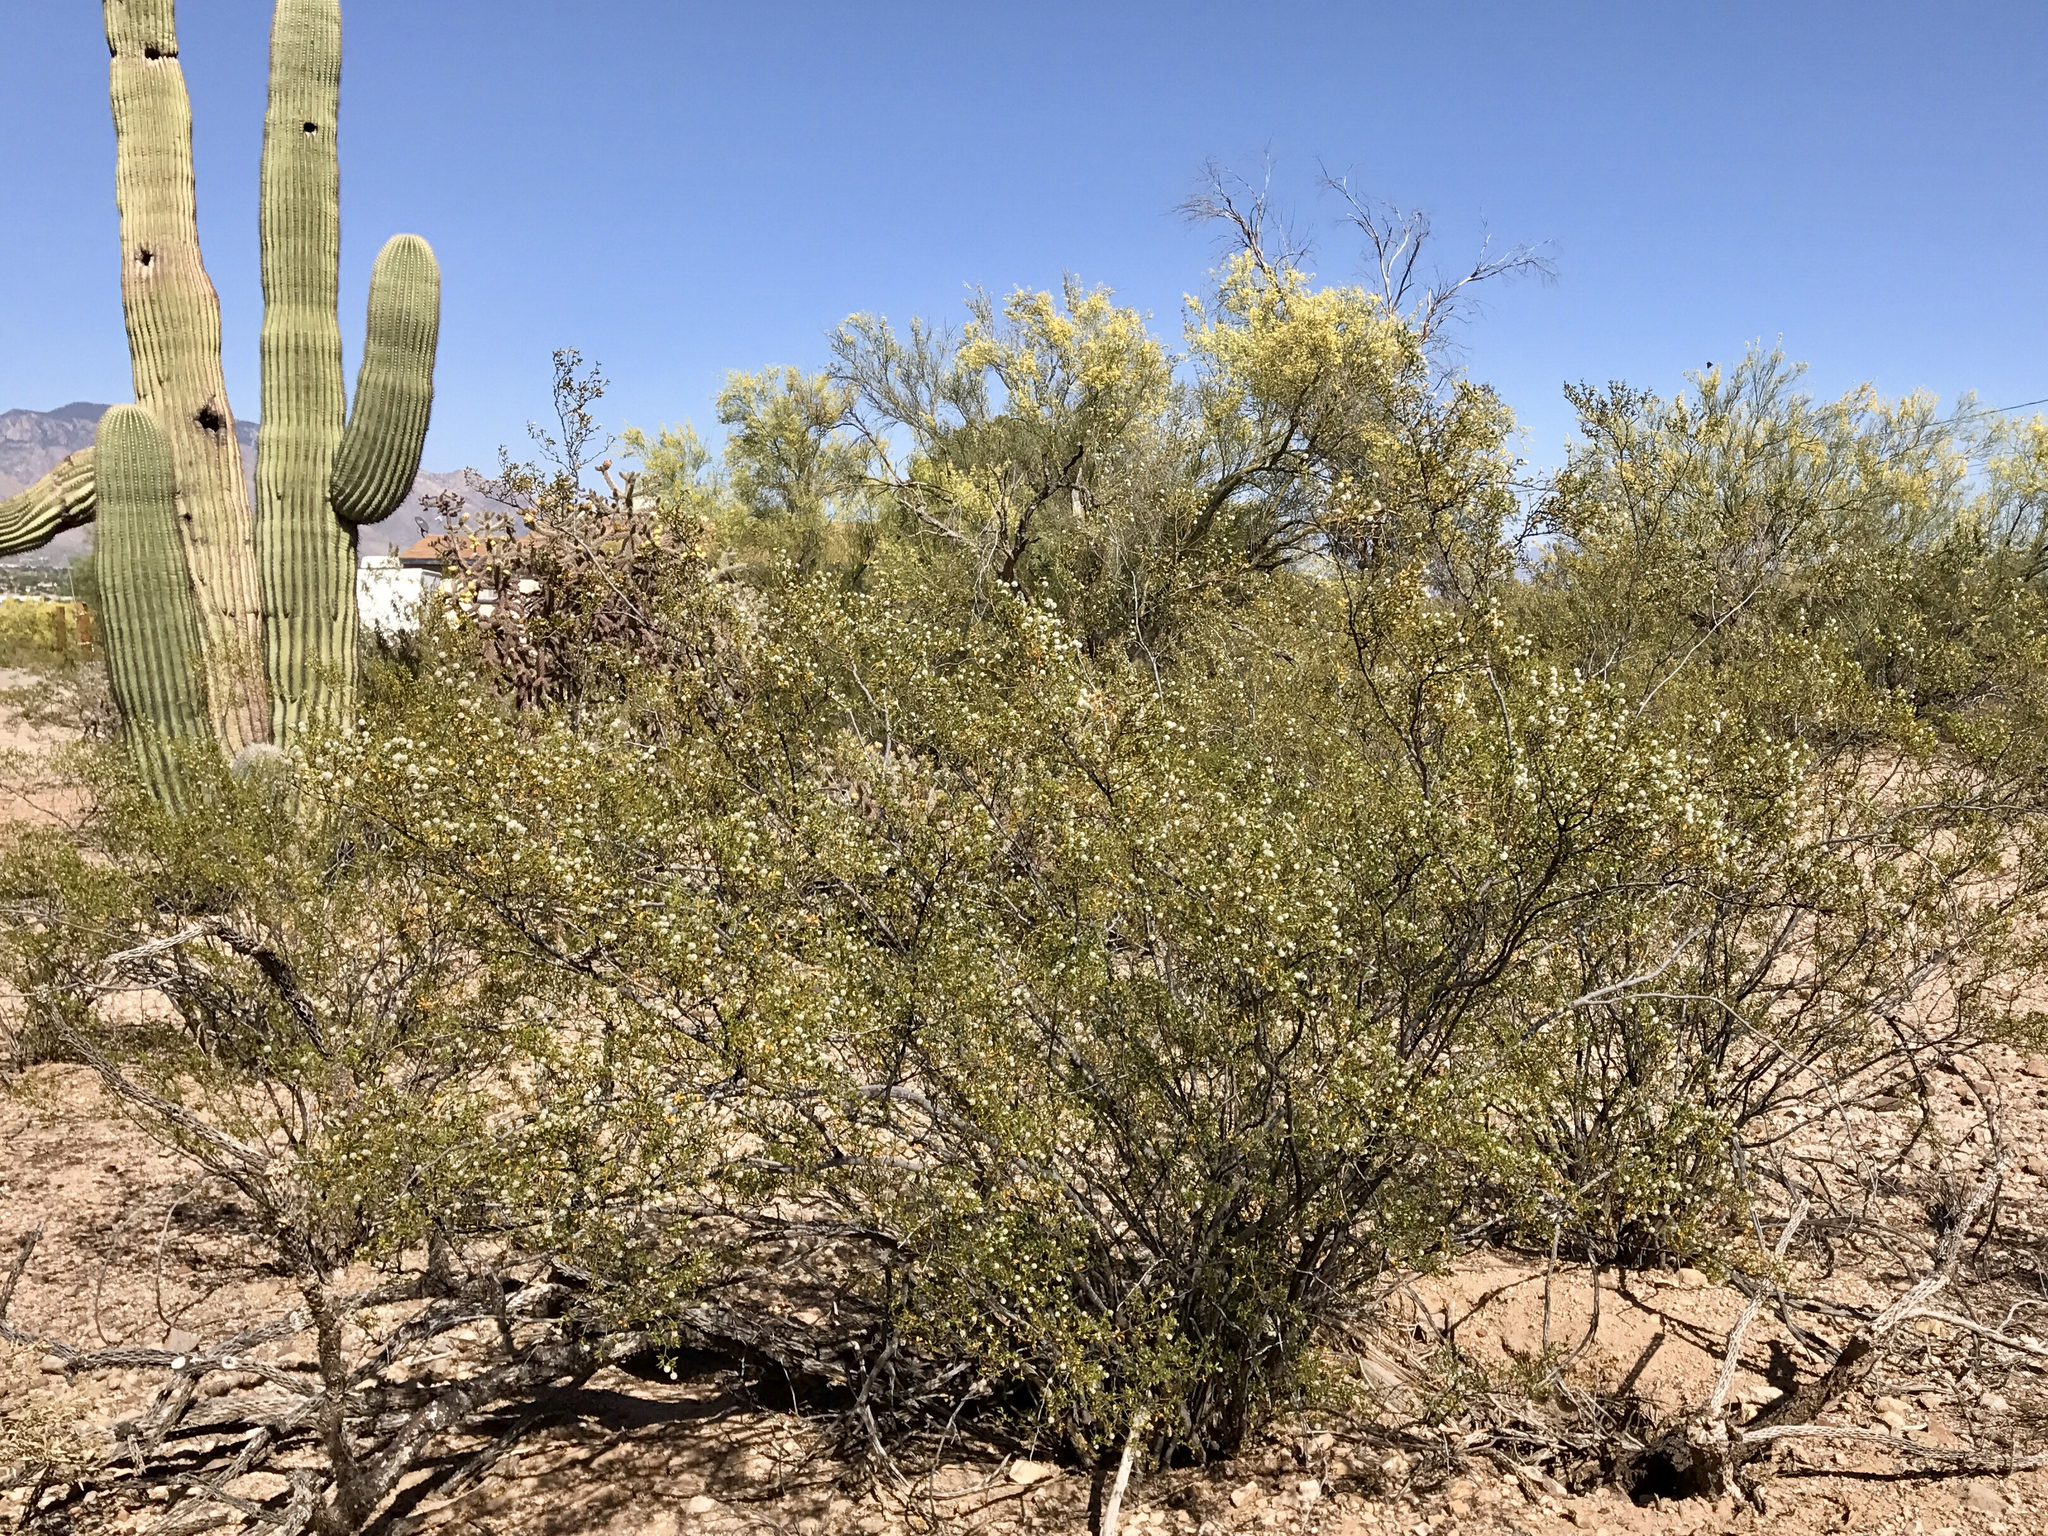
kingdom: Plantae
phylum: Tracheophyta
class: Magnoliopsida
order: Zygophyllales
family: Zygophyllaceae
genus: Larrea
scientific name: Larrea tridentata
